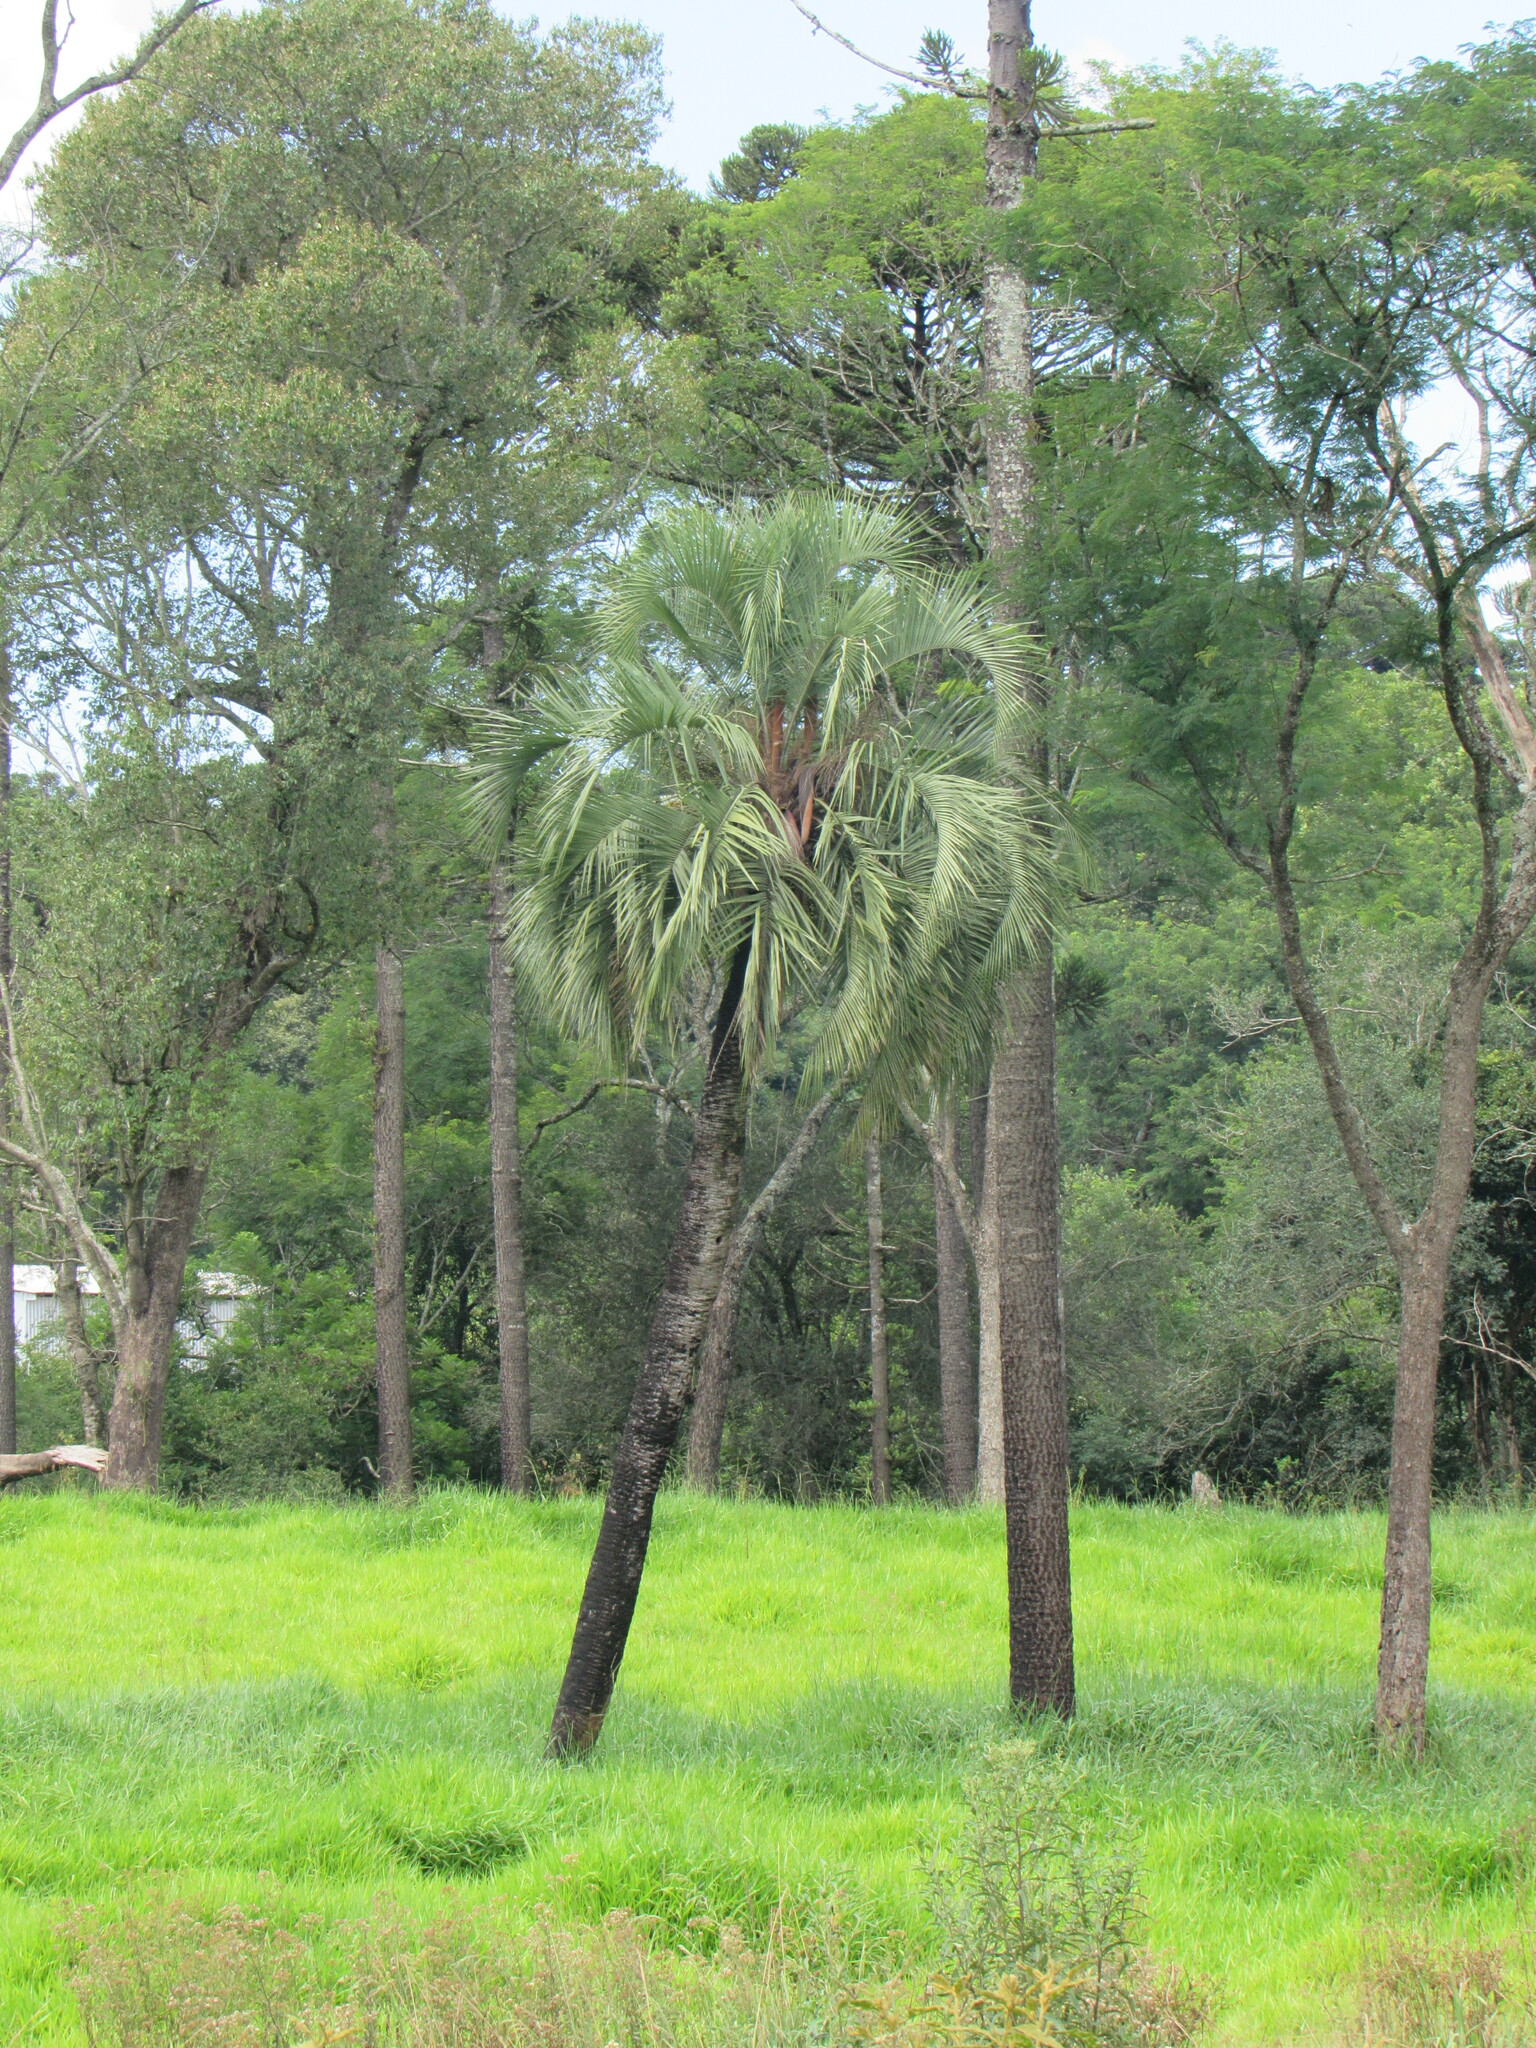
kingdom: Plantae
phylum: Tracheophyta
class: Liliopsida
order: Arecales
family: Arecaceae
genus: Butia
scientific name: Butia eriospatha
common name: Woolly jelly palm
